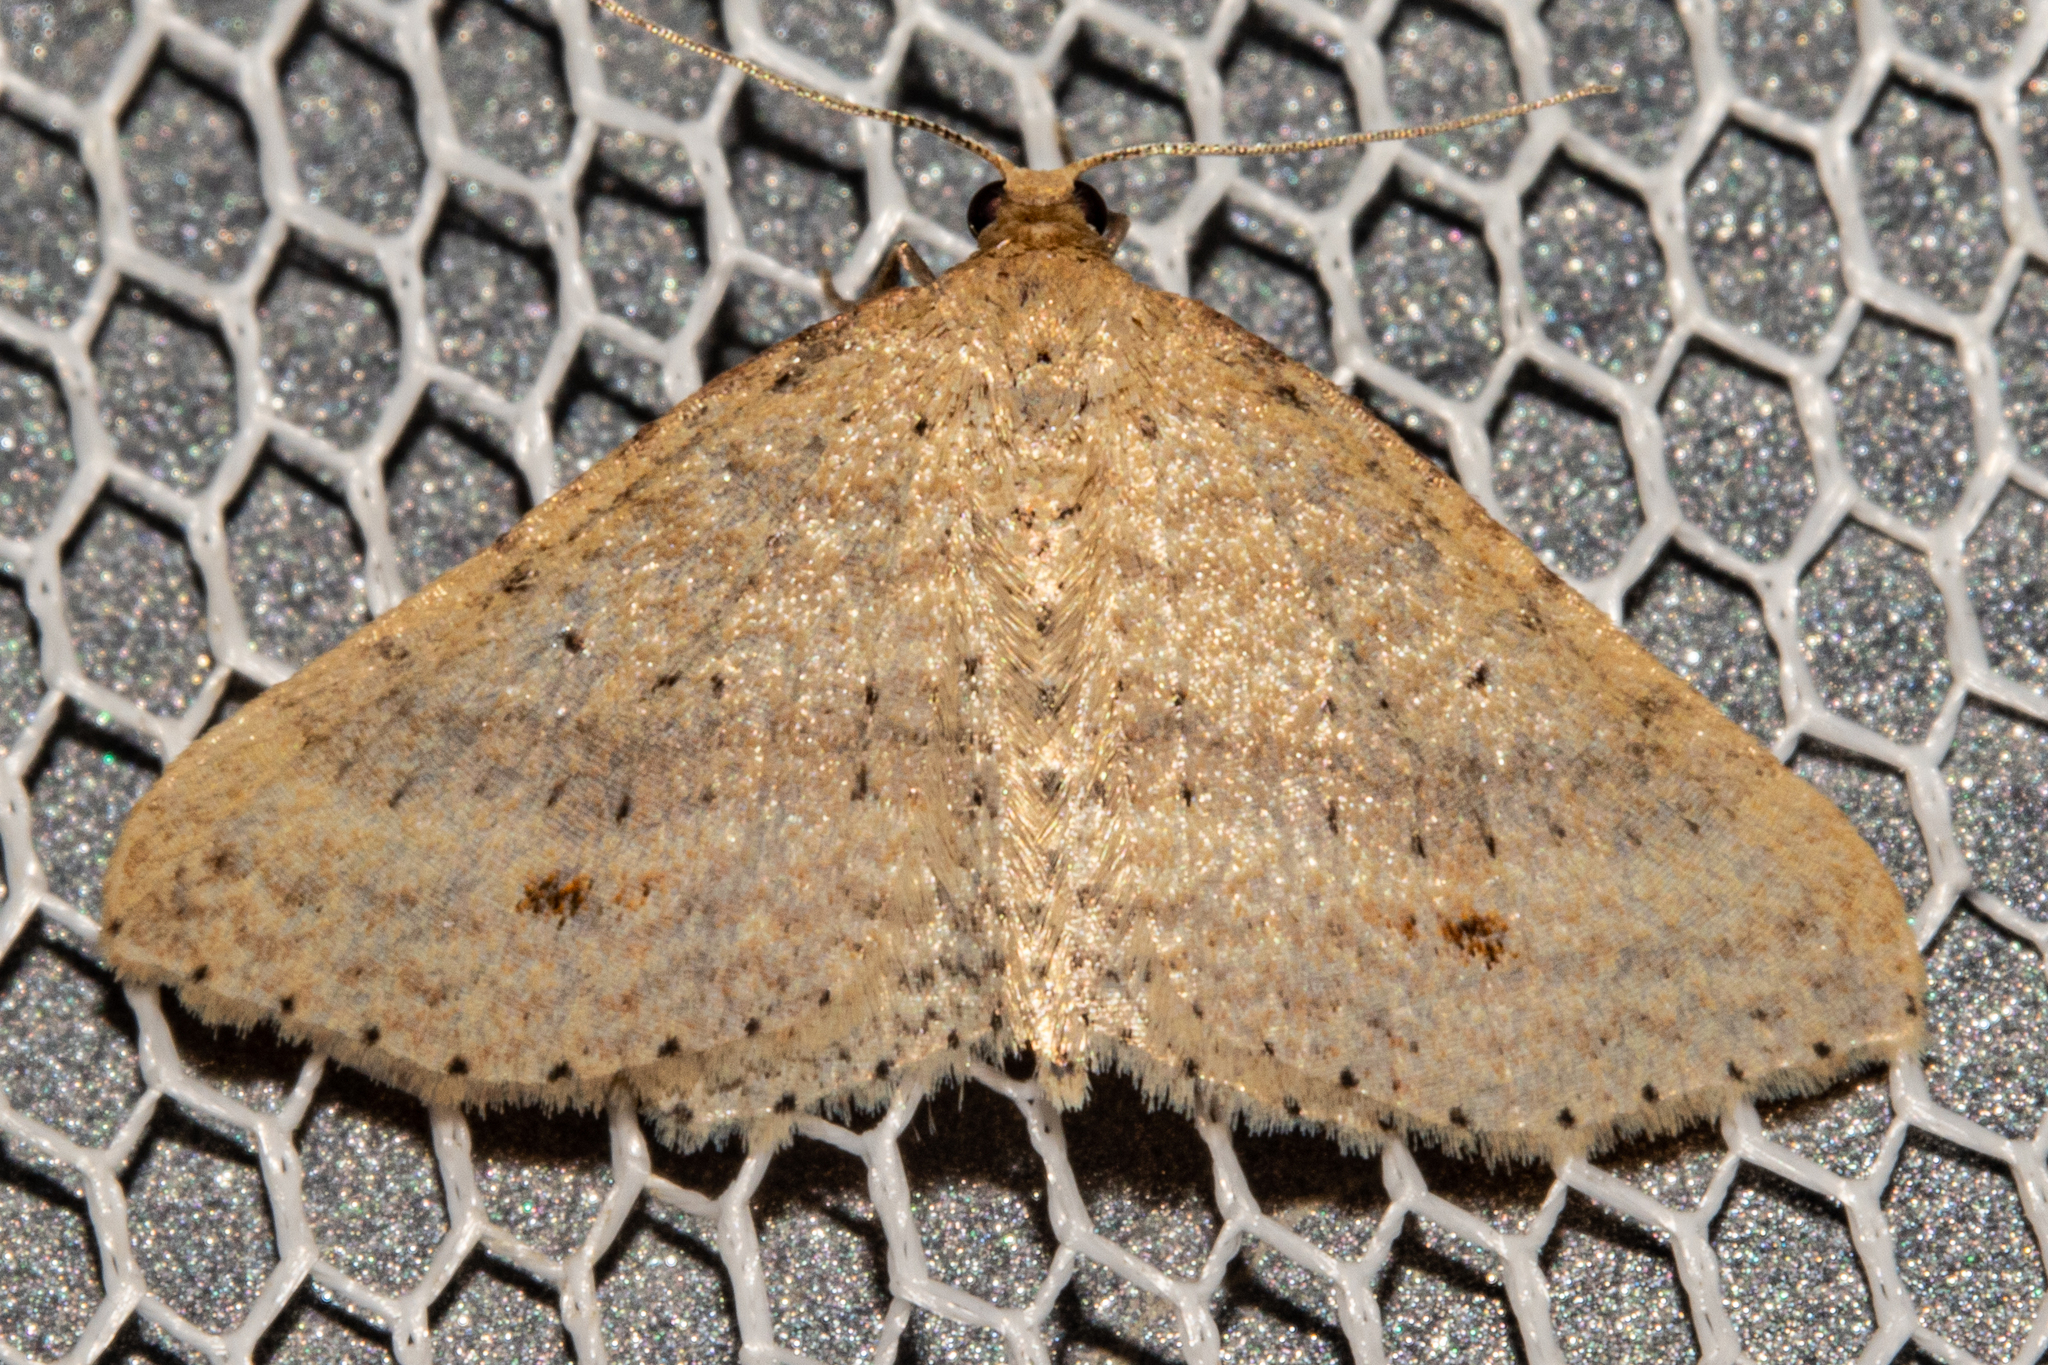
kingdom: Animalia
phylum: Arthropoda
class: Insecta
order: Lepidoptera
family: Geometridae
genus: Epicyme
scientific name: Epicyme rubropunctaria
